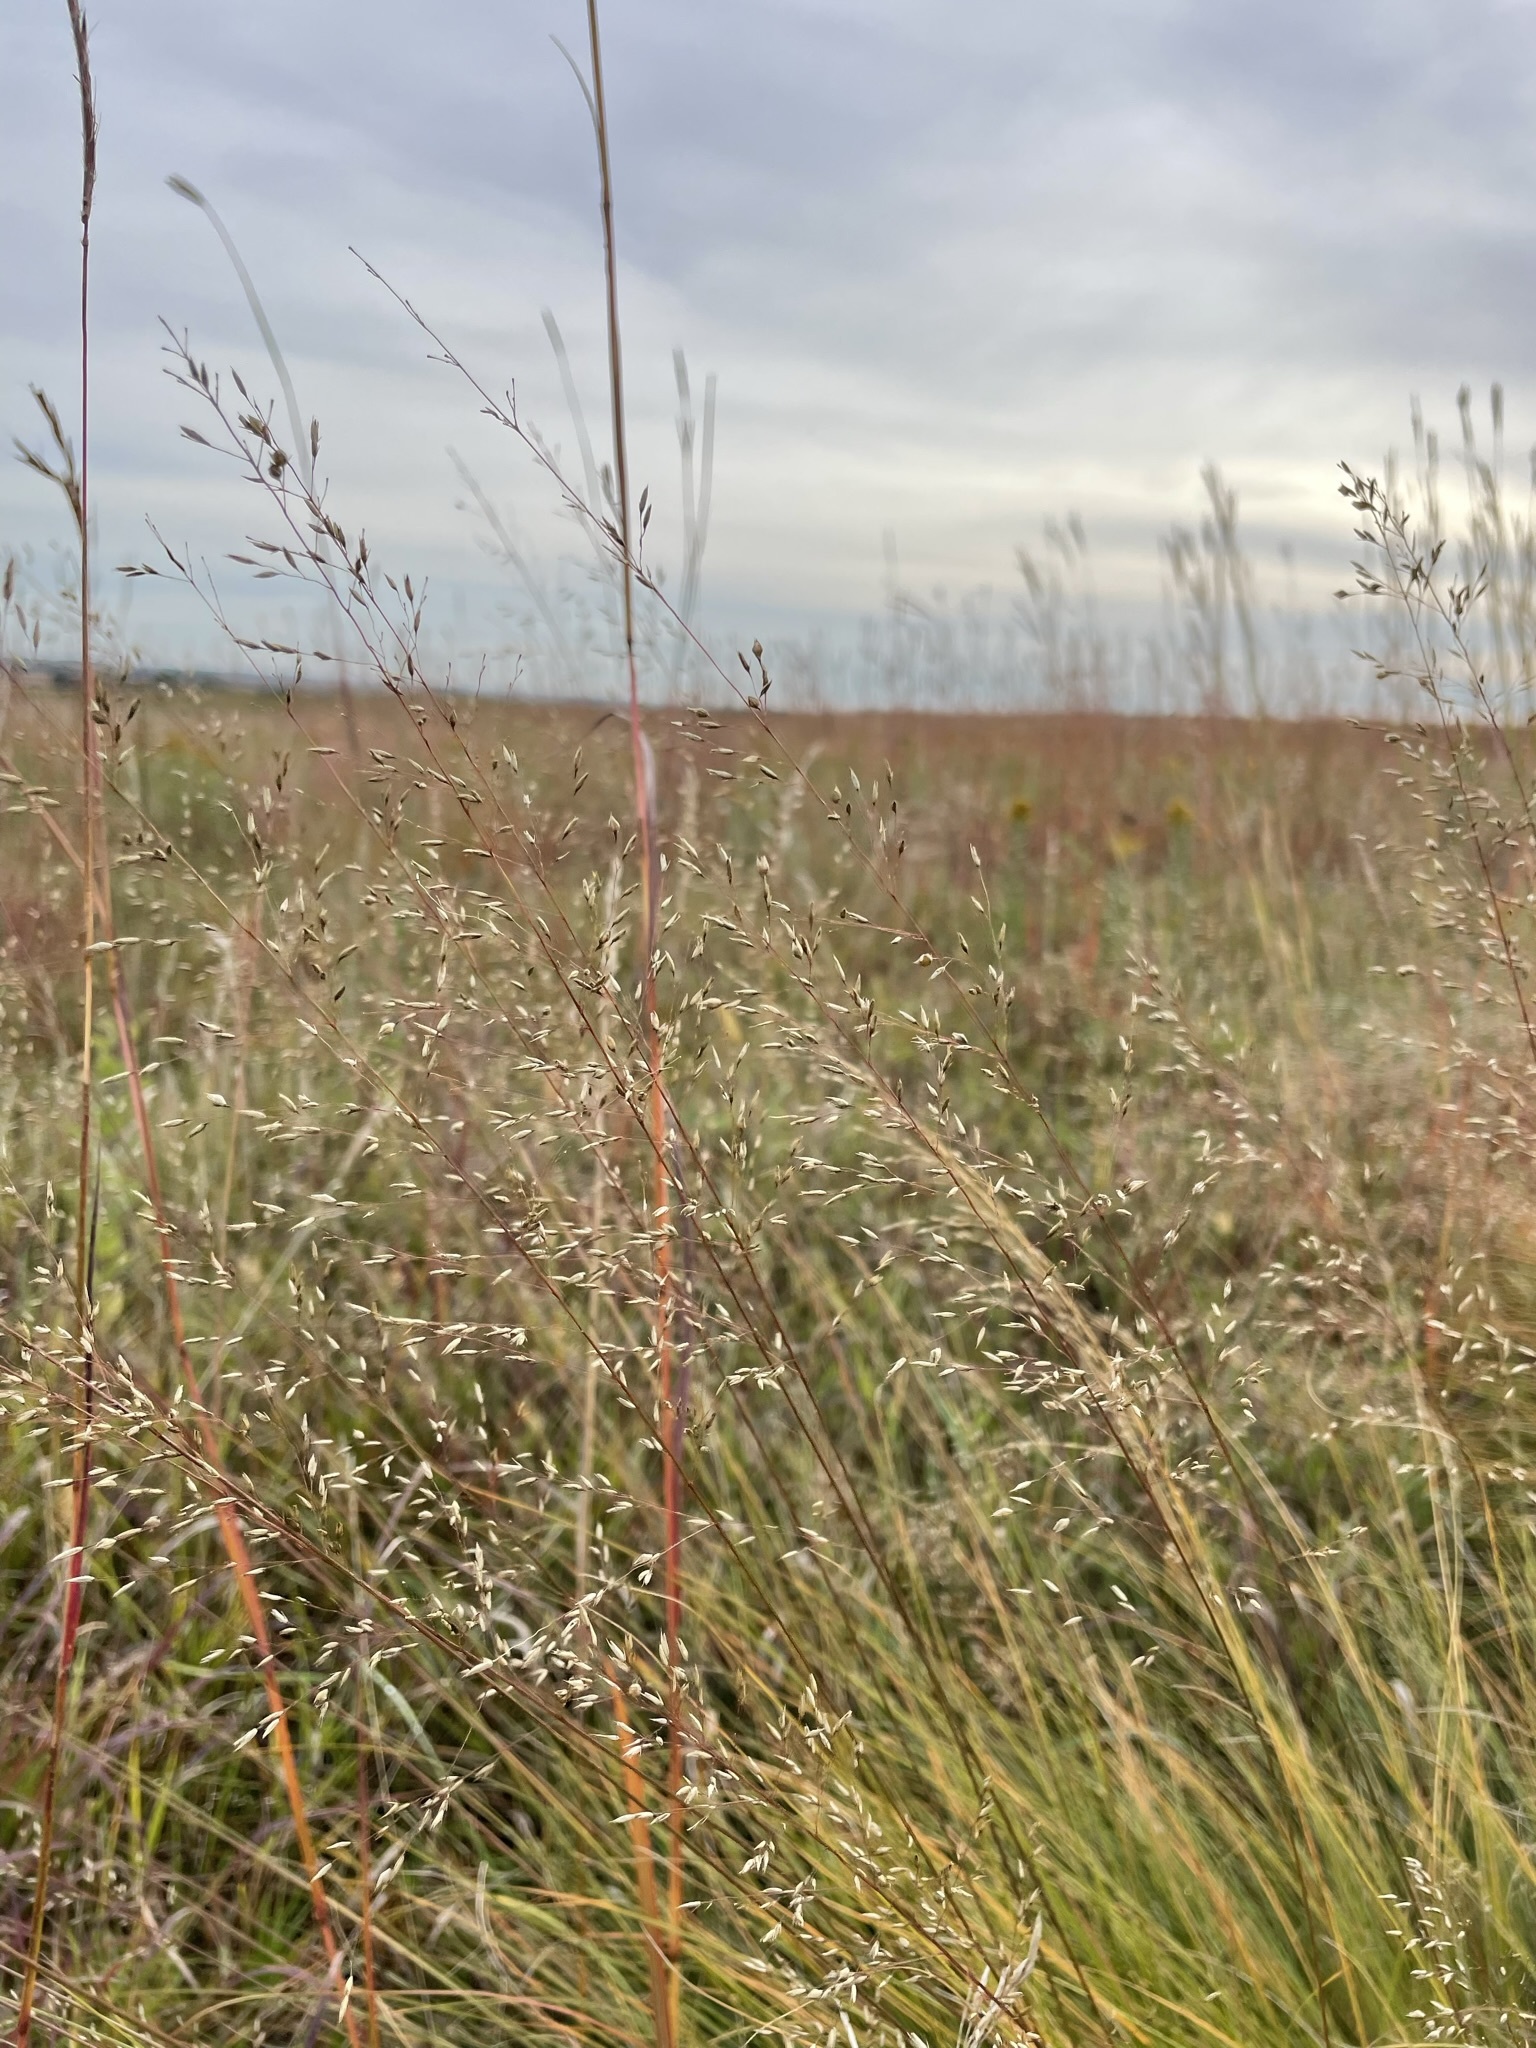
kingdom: Plantae
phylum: Tracheophyta
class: Liliopsida
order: Poales
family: Poaceae
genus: Sporobolus
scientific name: Sporobolus heterolepis
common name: Prairie dropseed
